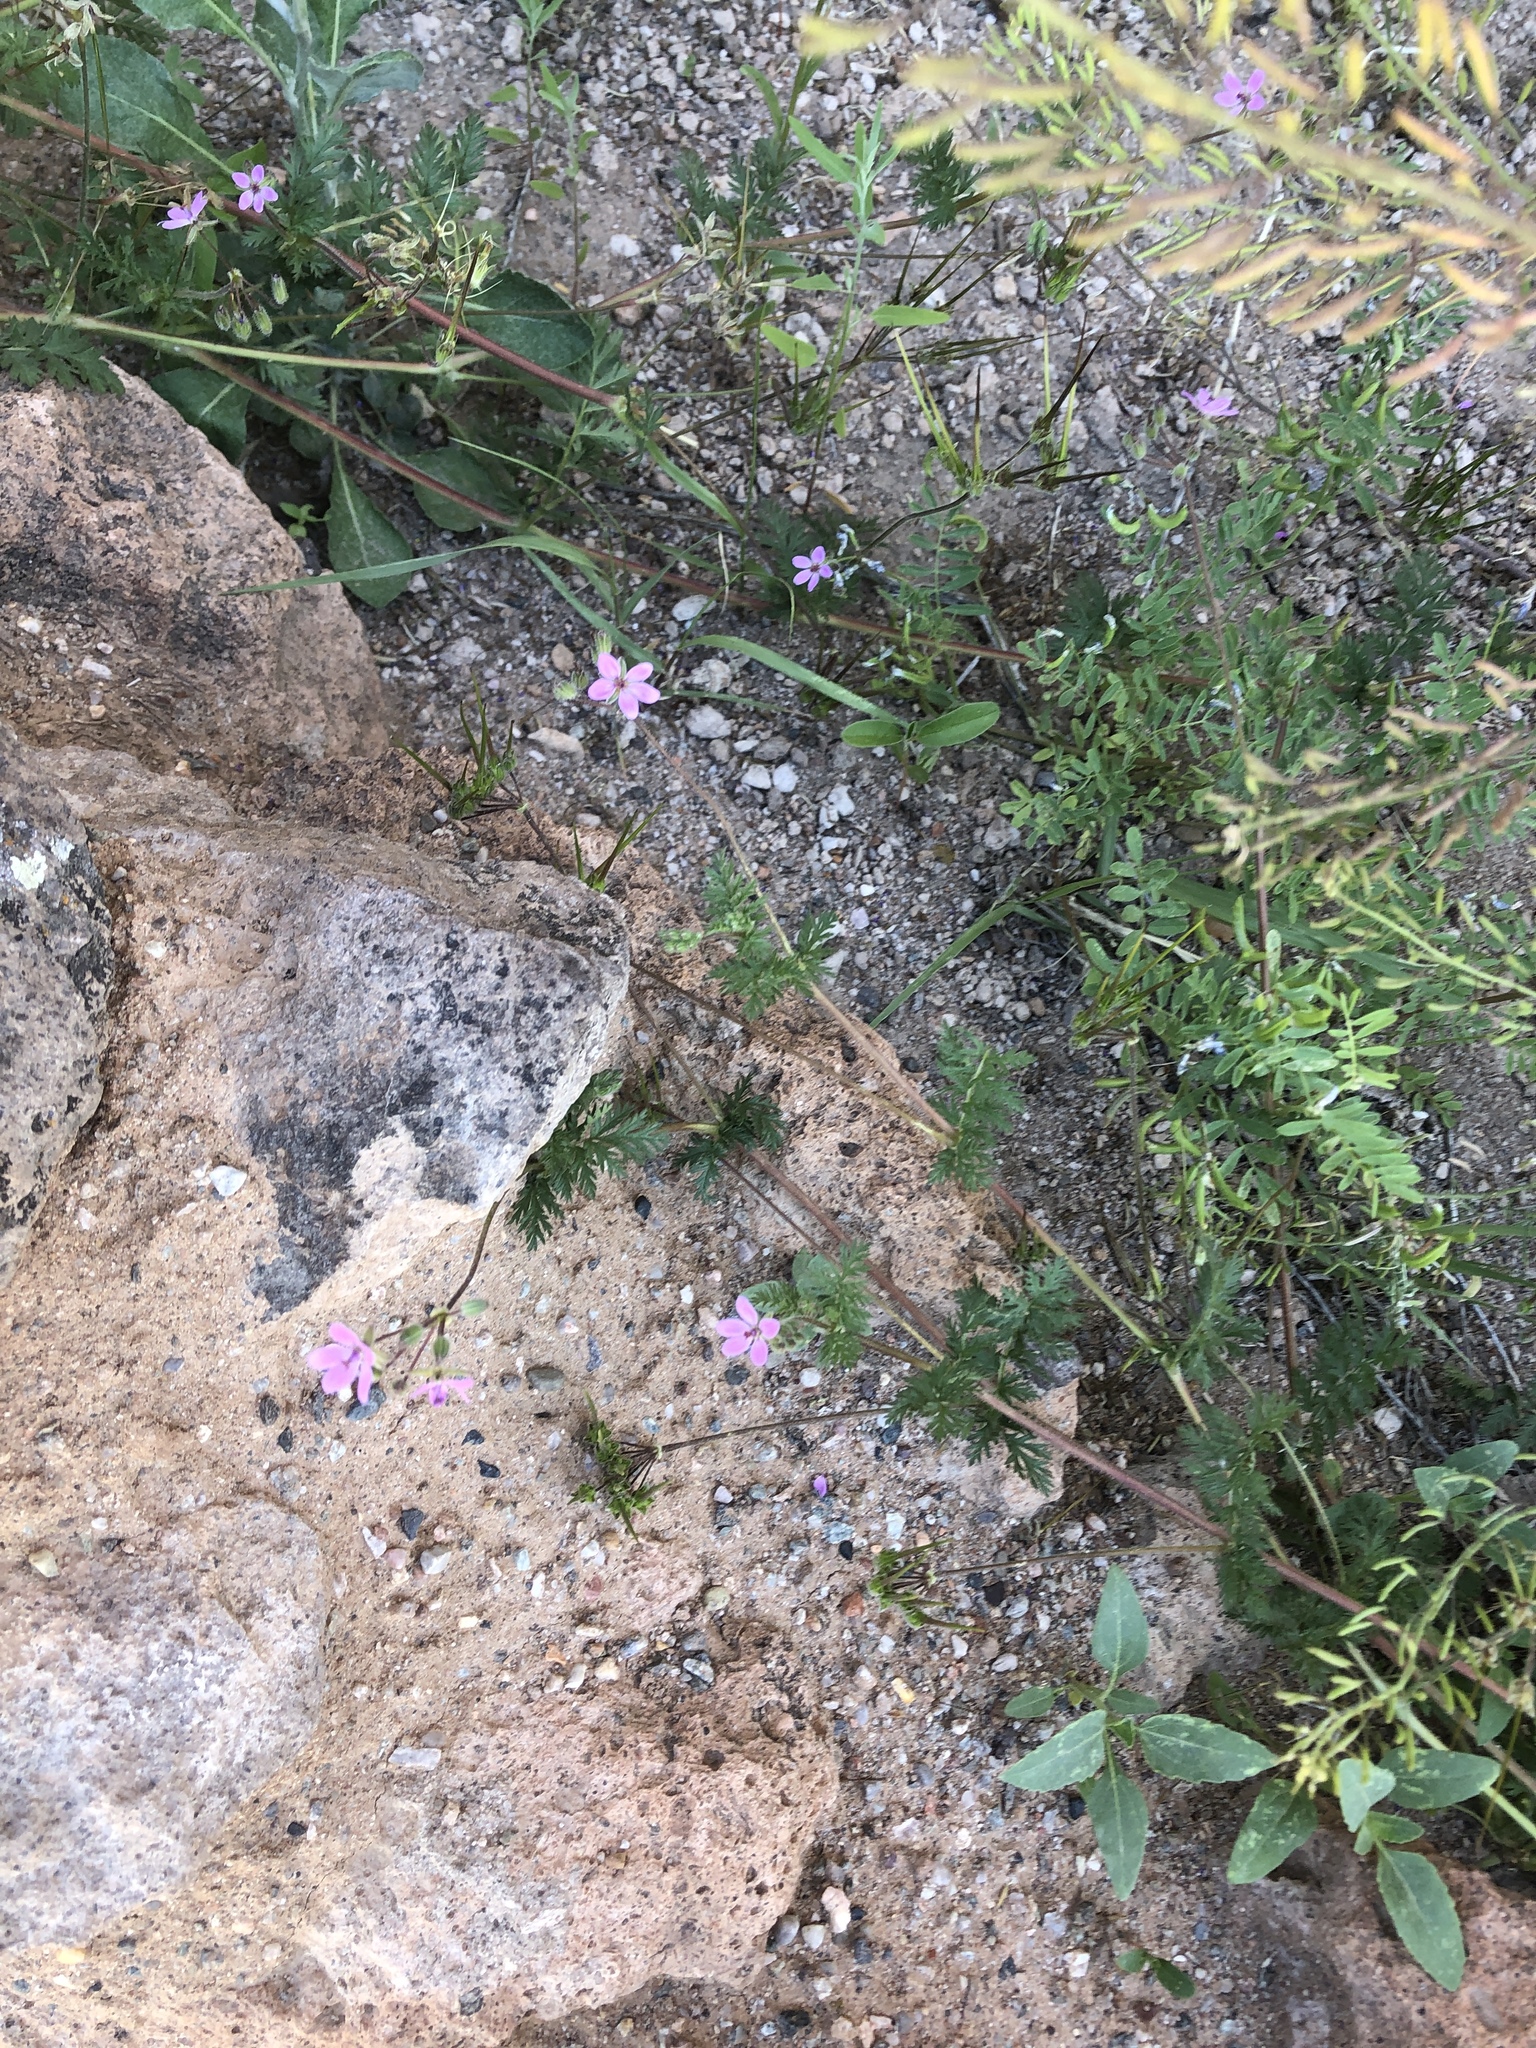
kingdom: Plantae
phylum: Tracheophyta
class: Magnoliopsida
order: Geraniales
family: Geraniaceae
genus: Erodium
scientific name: Erodium cicutarium
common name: Common stork's-bill
